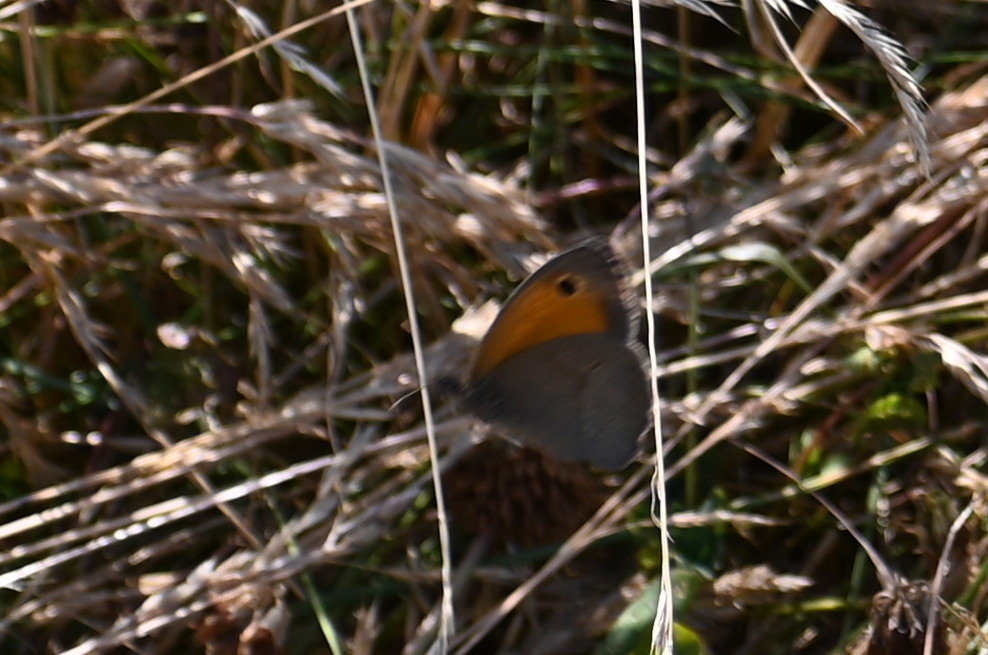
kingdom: Animalia
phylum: Arthropoda
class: Insecta
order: Lepidoptera
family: Nymphalidae
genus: Maniola
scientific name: Maniola jurtina
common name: Meadow brown
